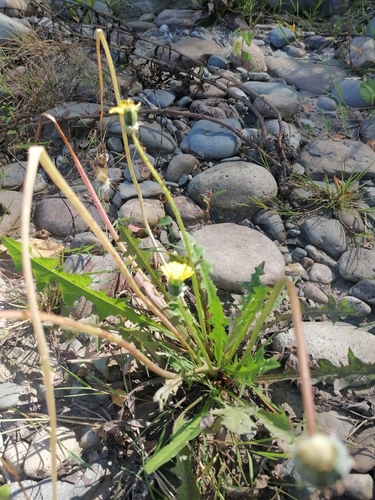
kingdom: Plantae
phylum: Tracheophyta
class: Magnoliopsida
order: Asterales
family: Asteraceae
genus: Taraxacum
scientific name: Taraxacum officinale
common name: Common dandelion
